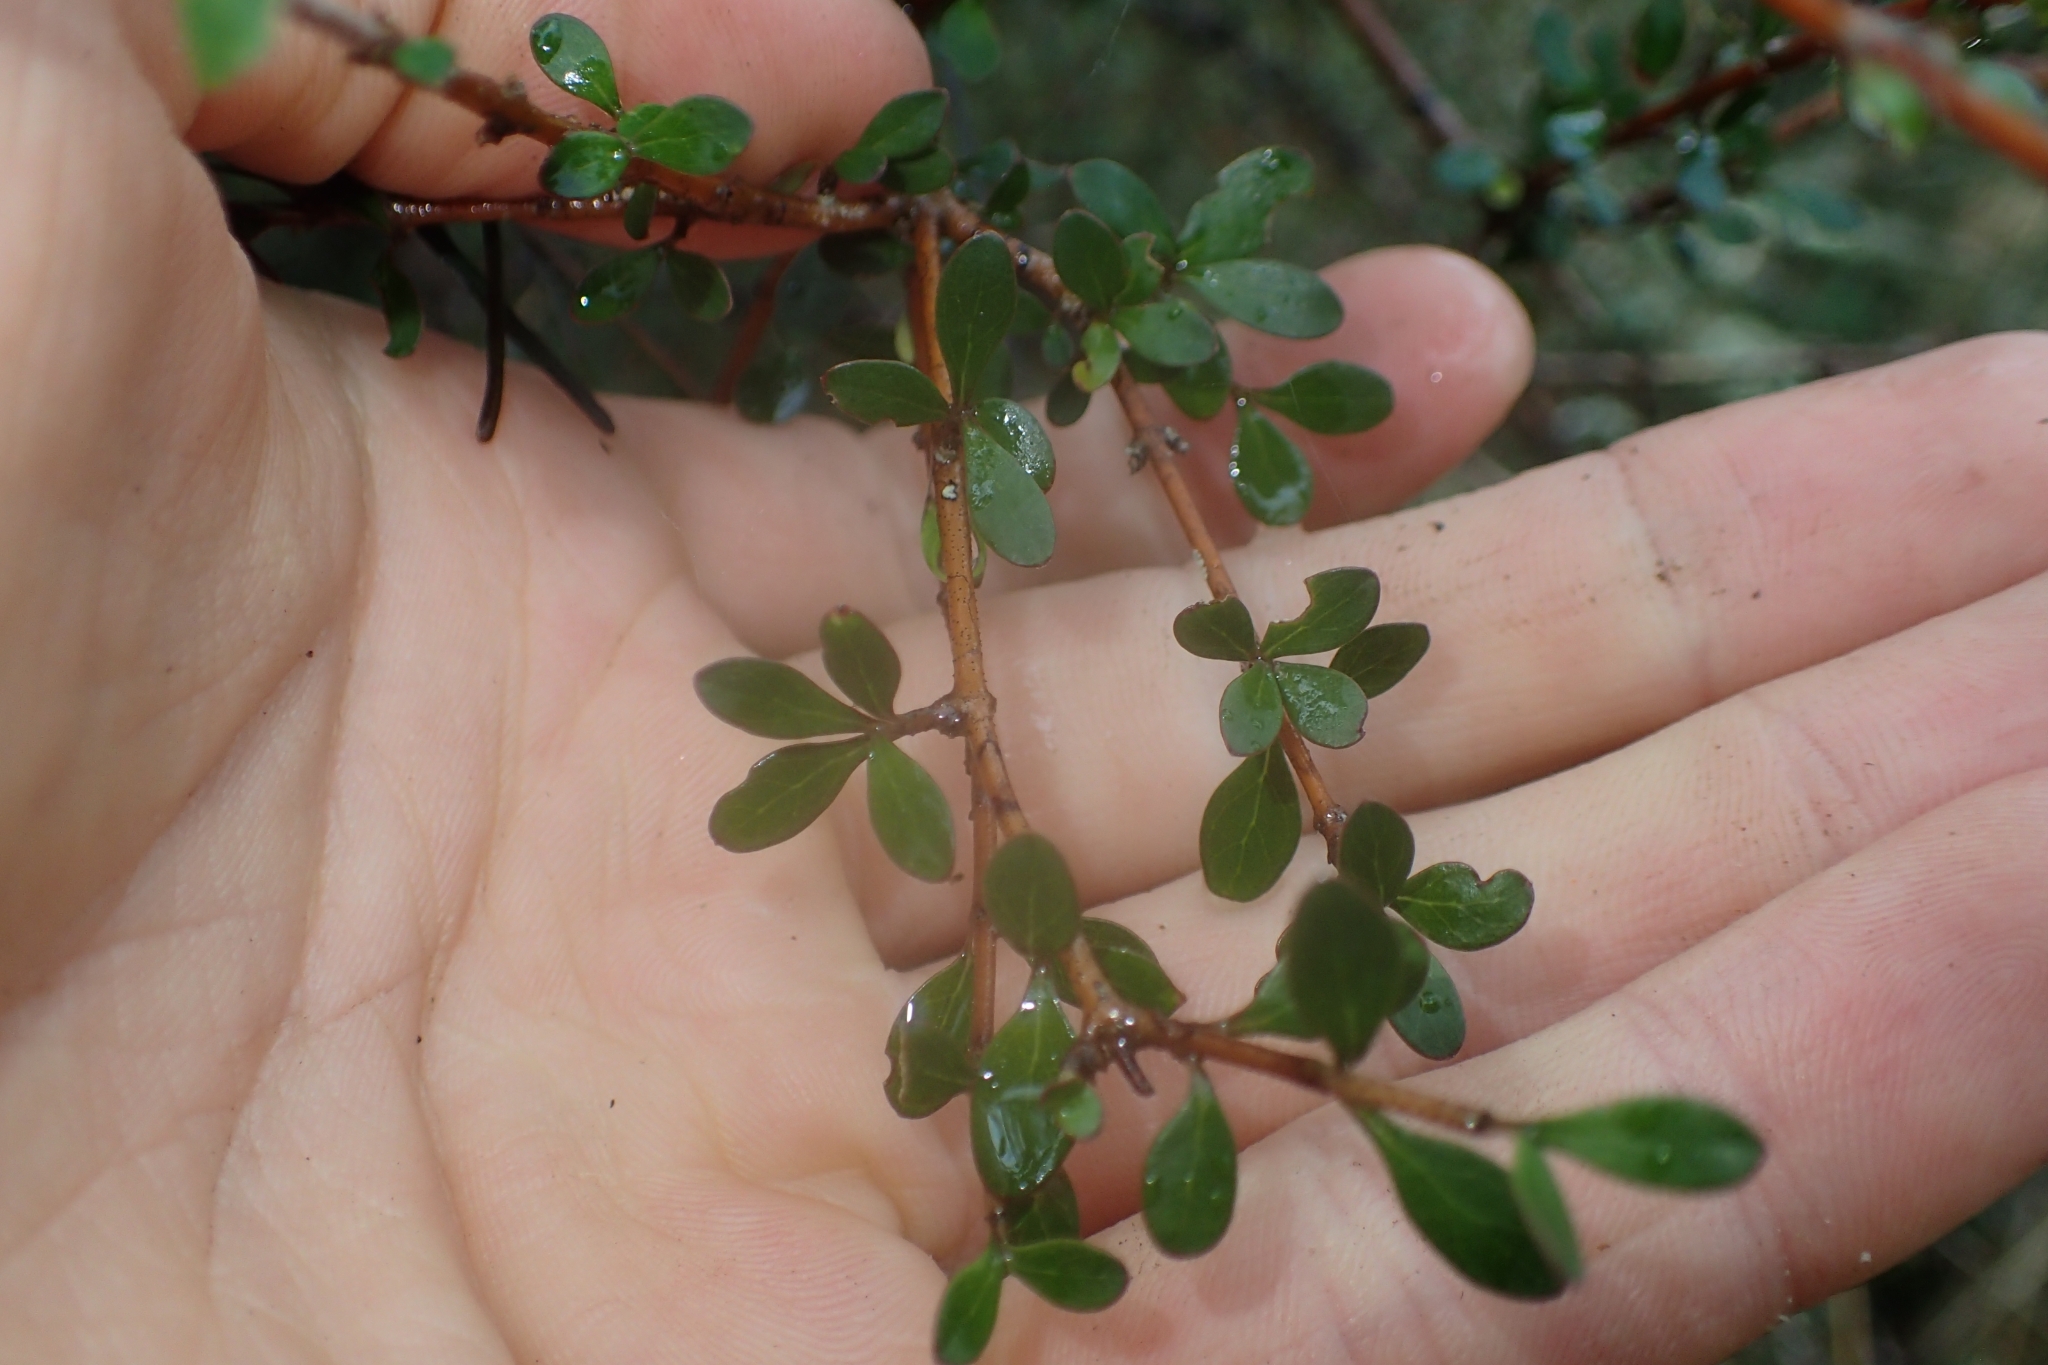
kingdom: Plantae
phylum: Tracheophyta
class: Magnoliopsida
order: Gentianales
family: Rubiaceae
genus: Coprosma
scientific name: Coprosma rigida
